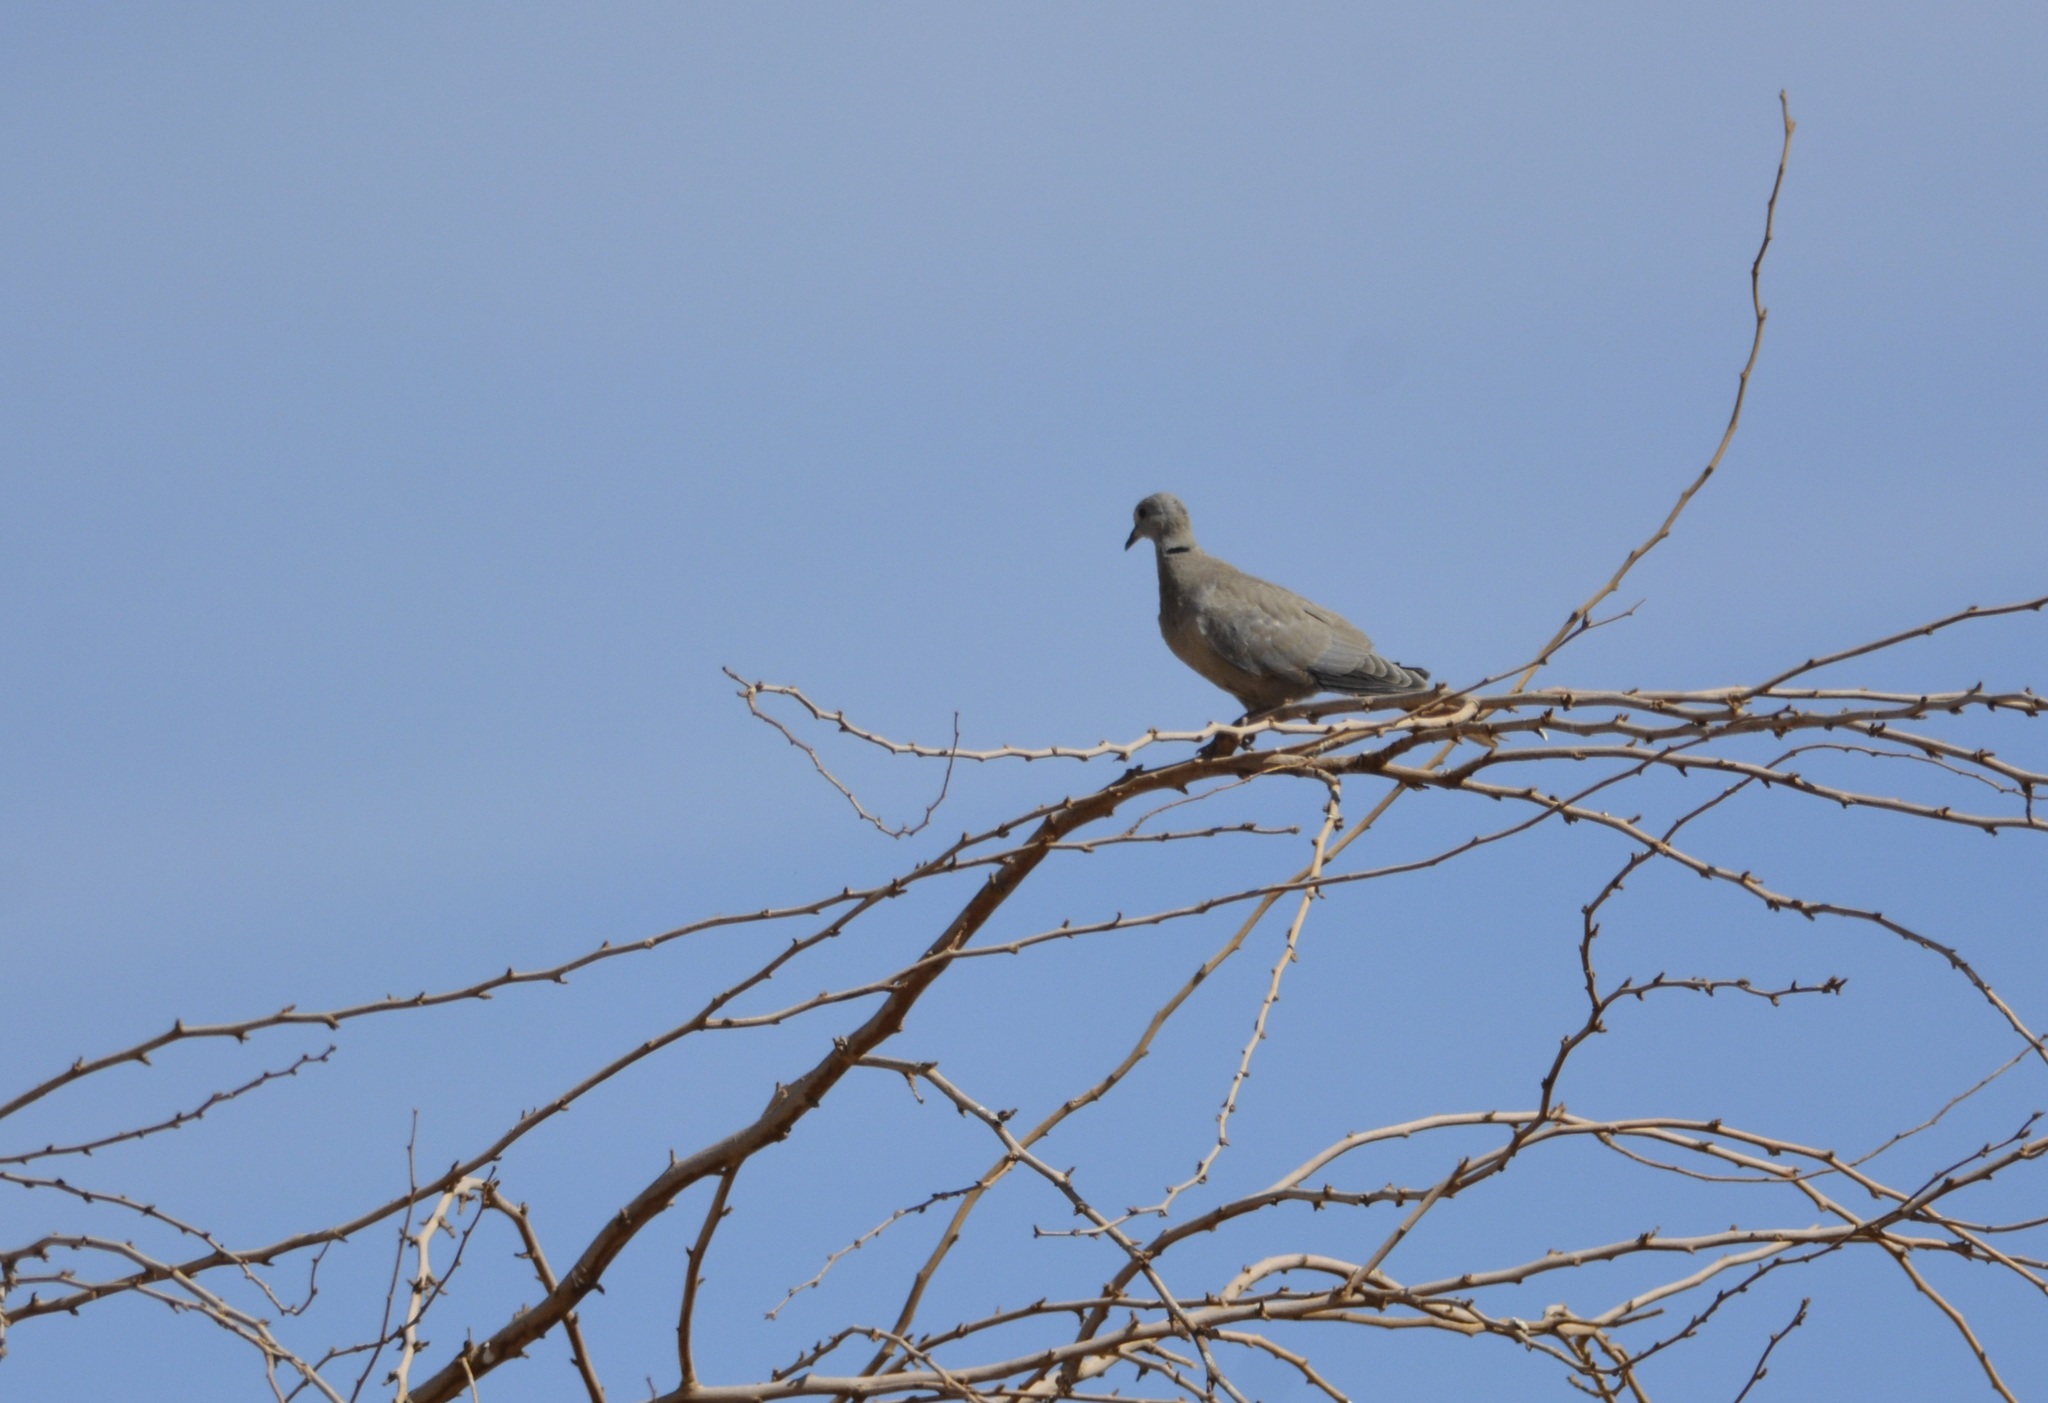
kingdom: Animalia
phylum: Chordata
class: Aves
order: Columbiformes
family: Columbidae
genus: Streptopelia
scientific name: Streptopelia decaocto
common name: Eurasian collared dove
